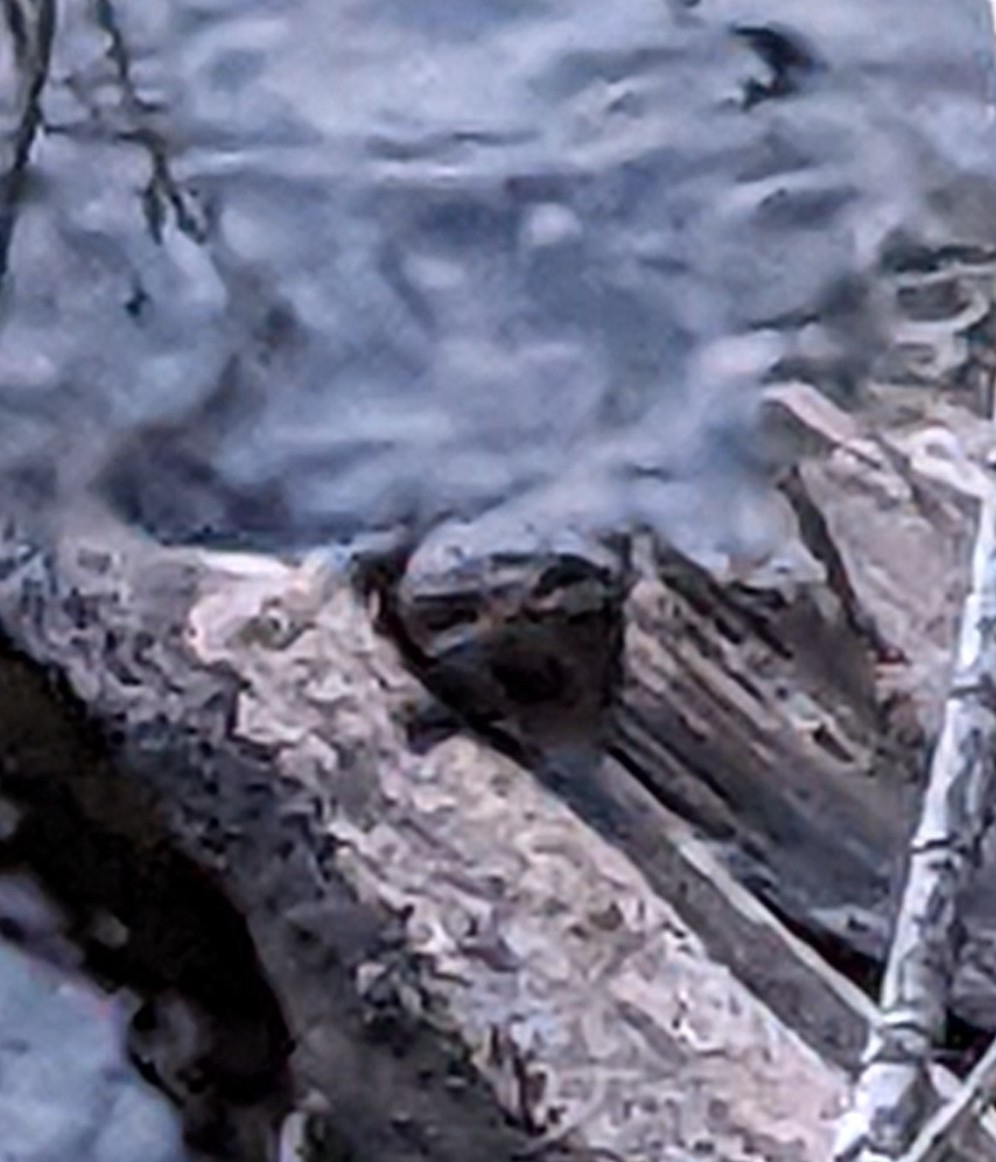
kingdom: Animalia
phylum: Chordata
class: Amphibia
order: Anura
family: Bufonidae
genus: Anaxyrus
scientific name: Anaxyrus americanus
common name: American toad
